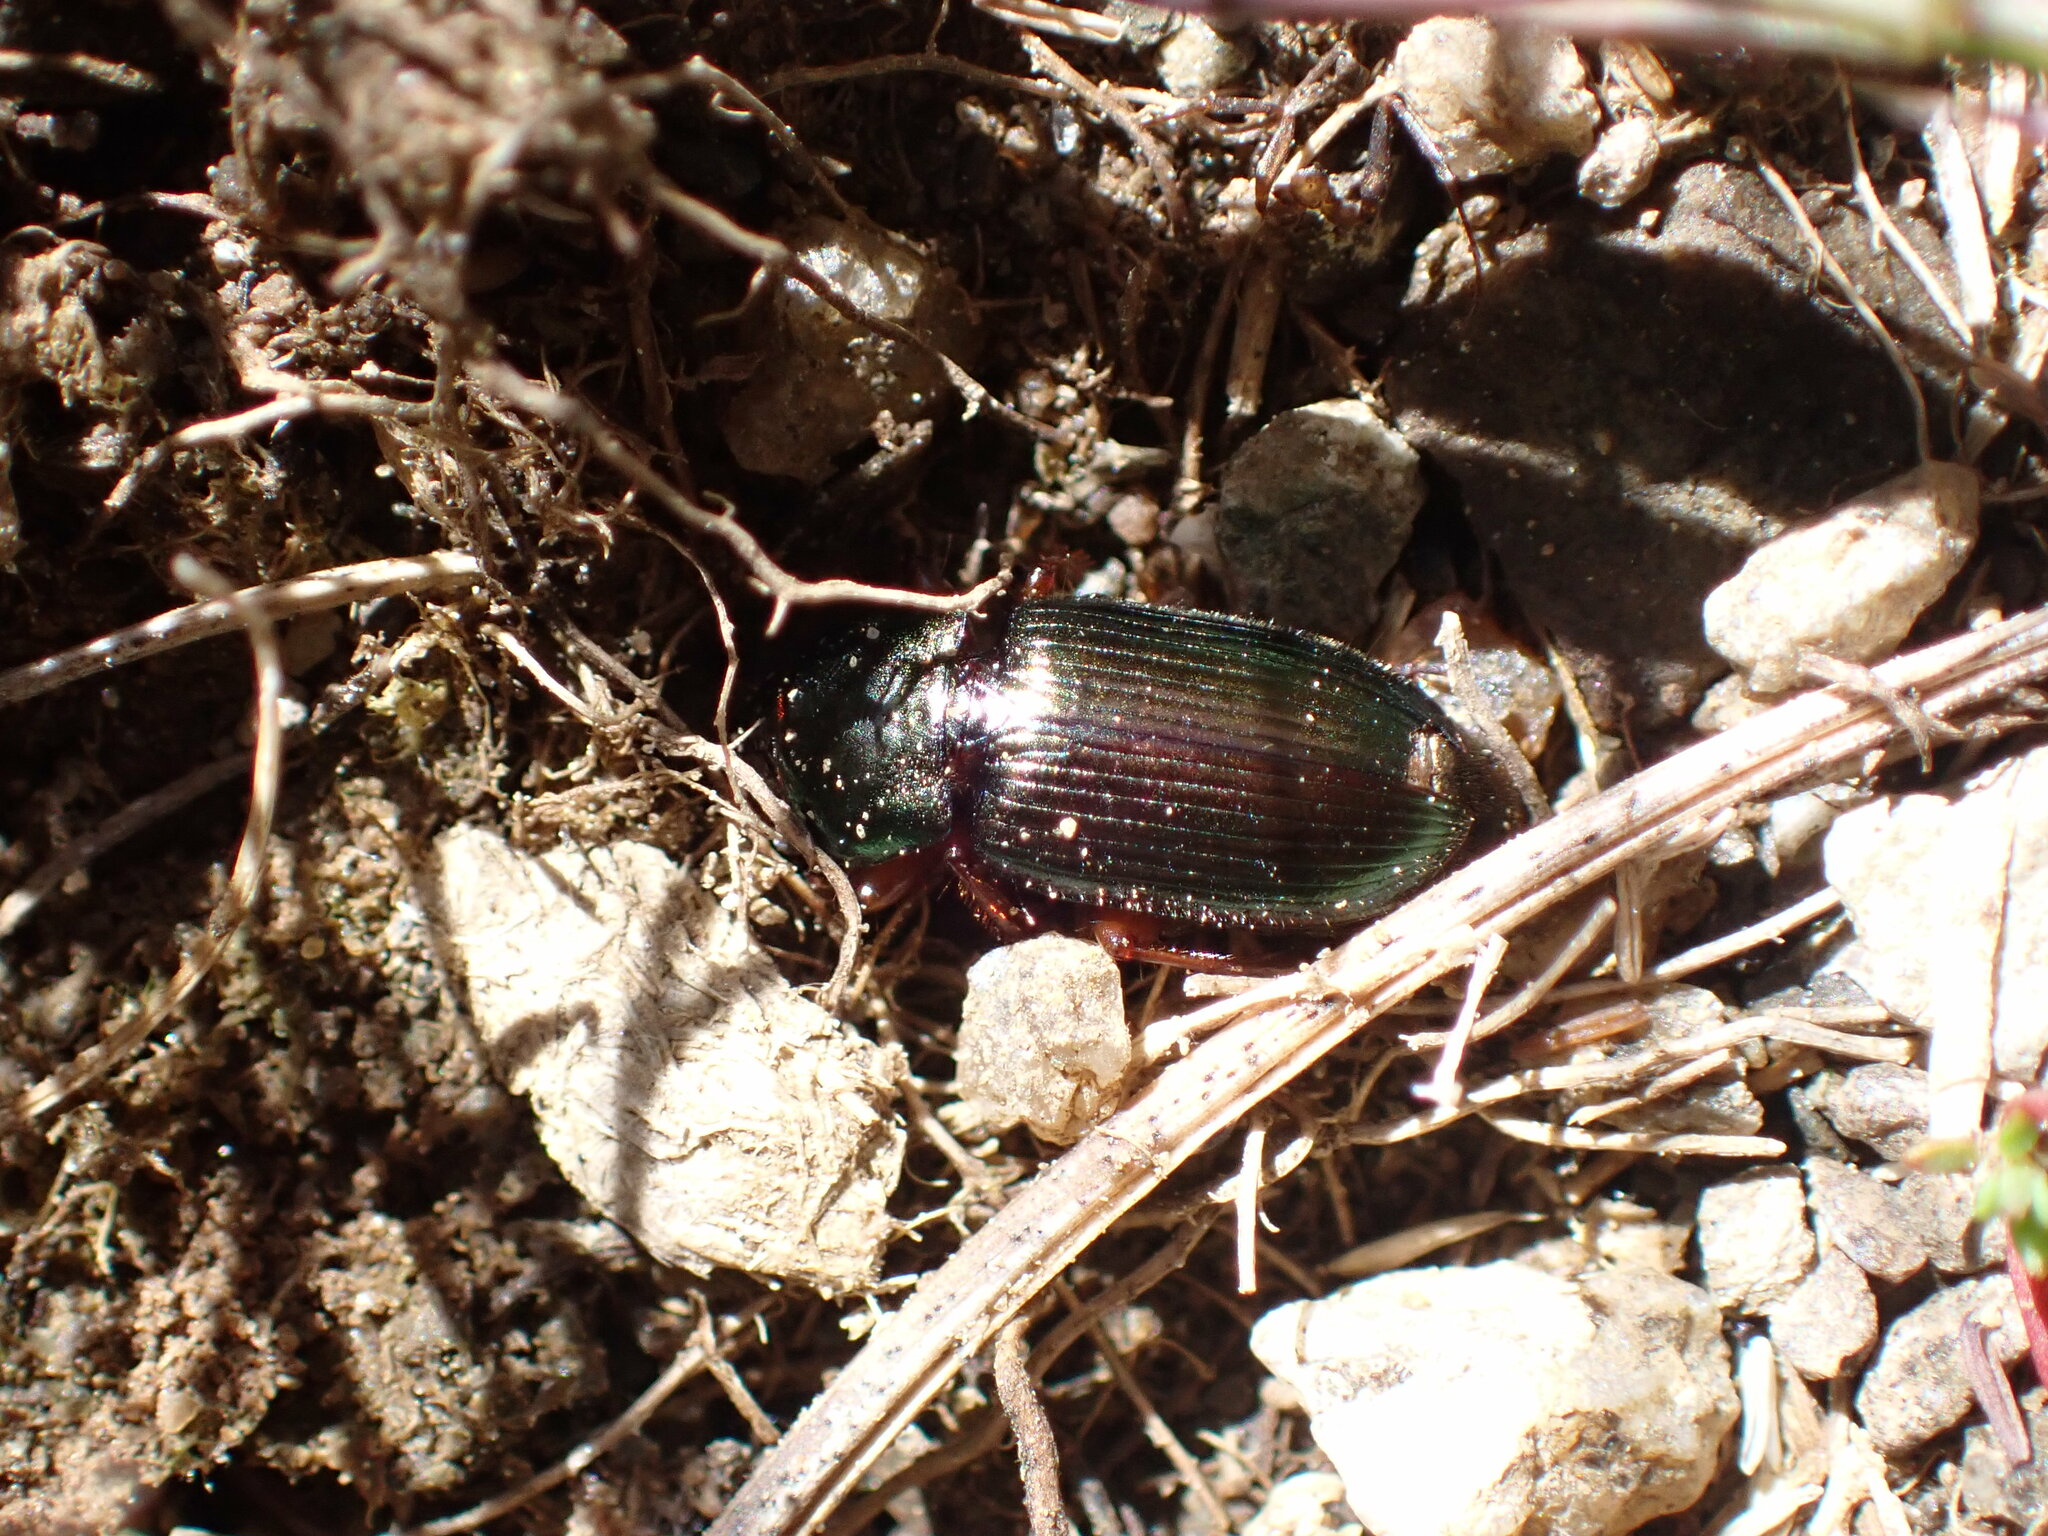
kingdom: Animalia
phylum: Arthropoda
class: Insecta
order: Coleoptera
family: Carabidae
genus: Harpalus
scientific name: Harpalus affinis
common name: Polychrome harp ground beetle
